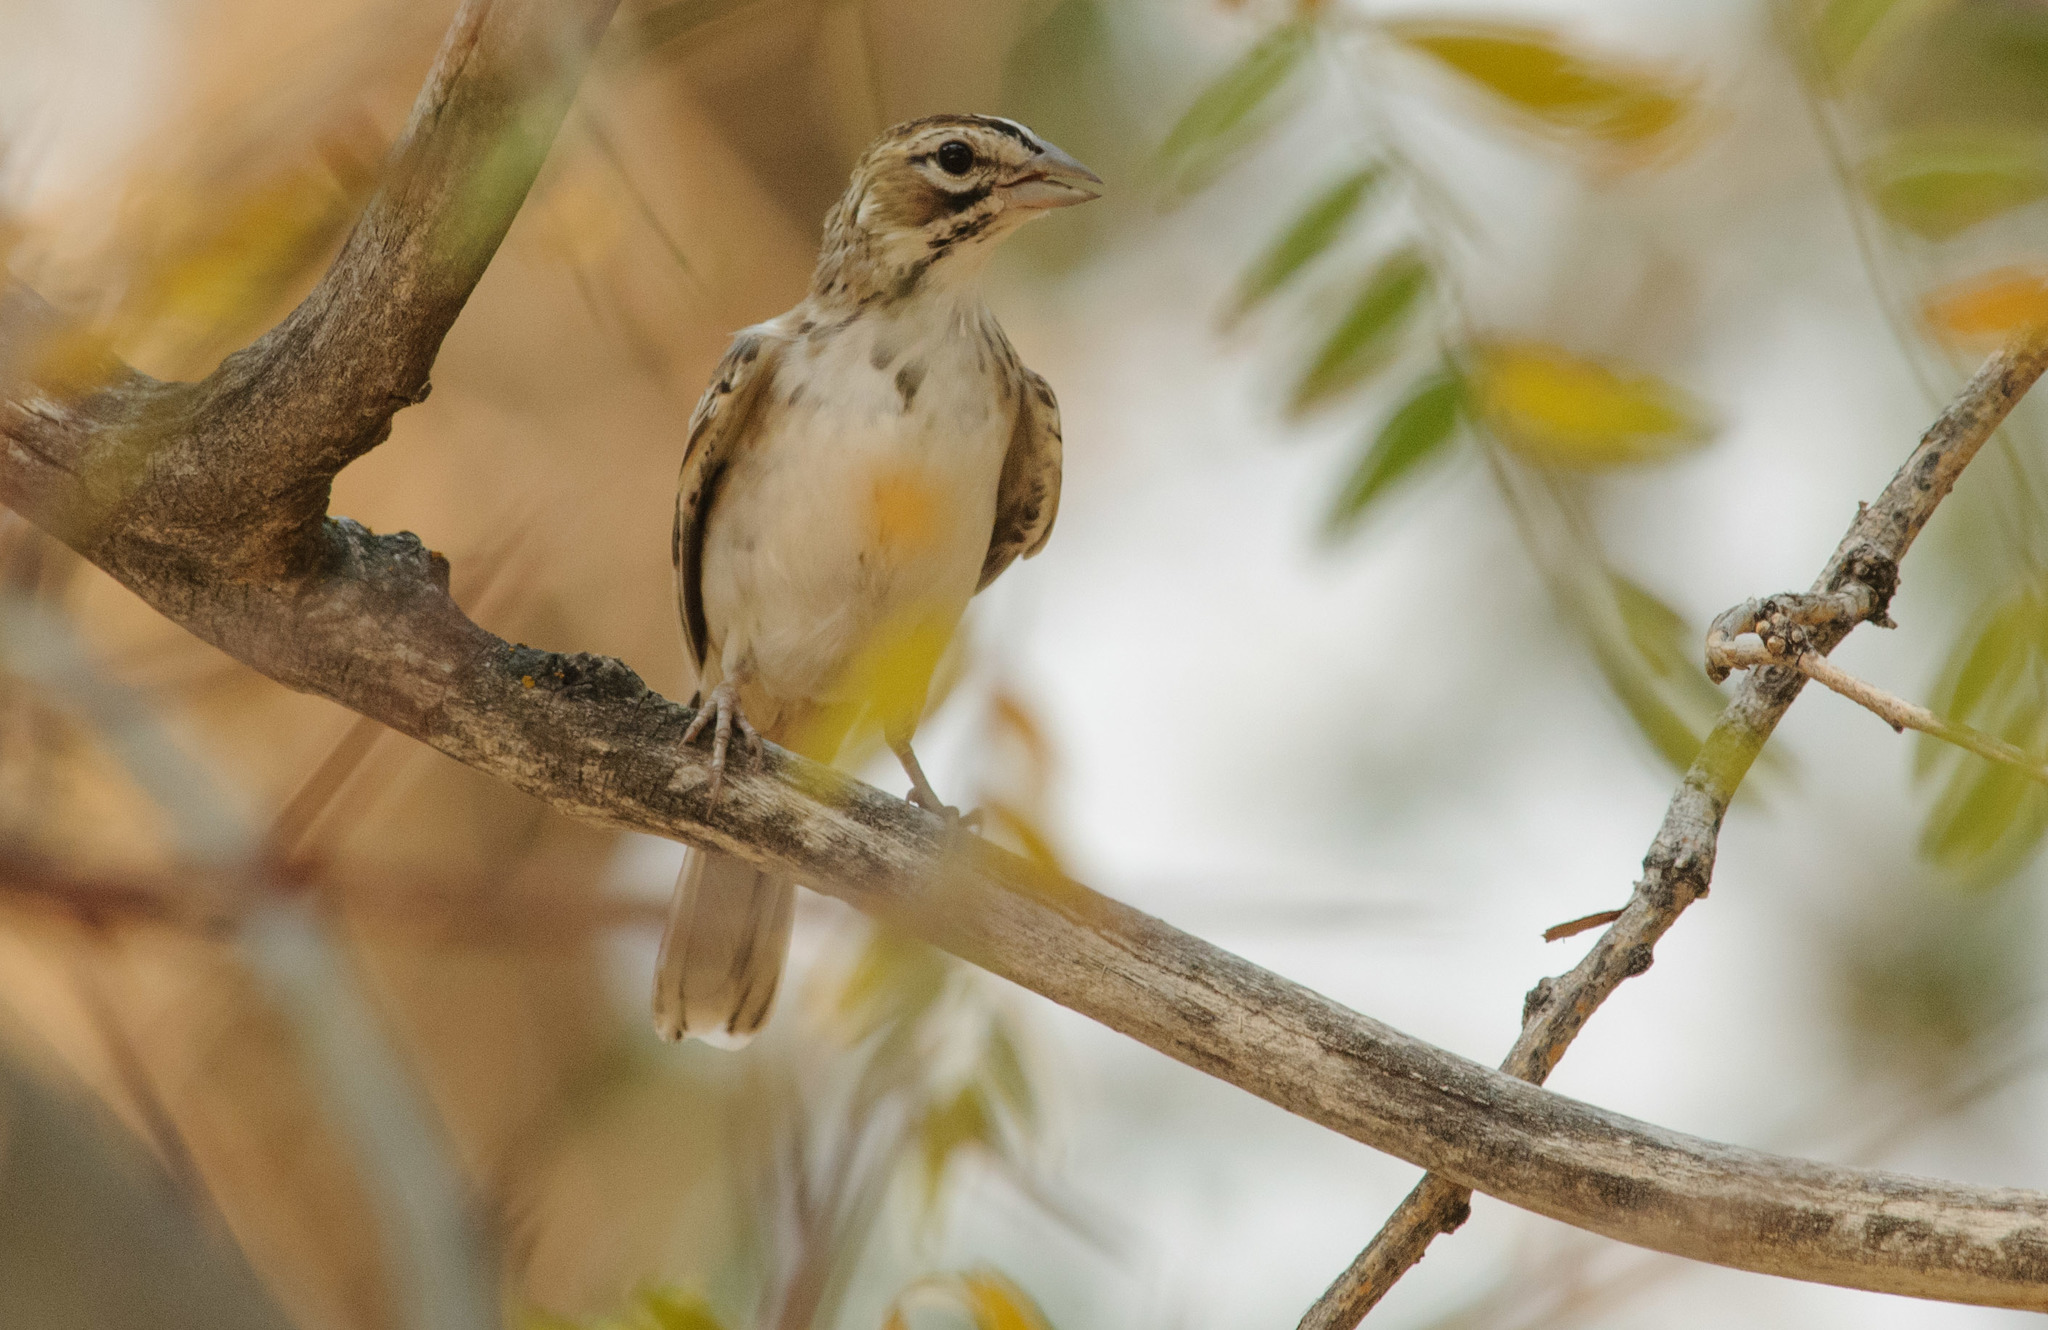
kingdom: Animalia
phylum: Chordata
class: Aves
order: Passeriformes
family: Passerellidae
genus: Chondestes
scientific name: Chondestes grammacus
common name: Lark sparrow
